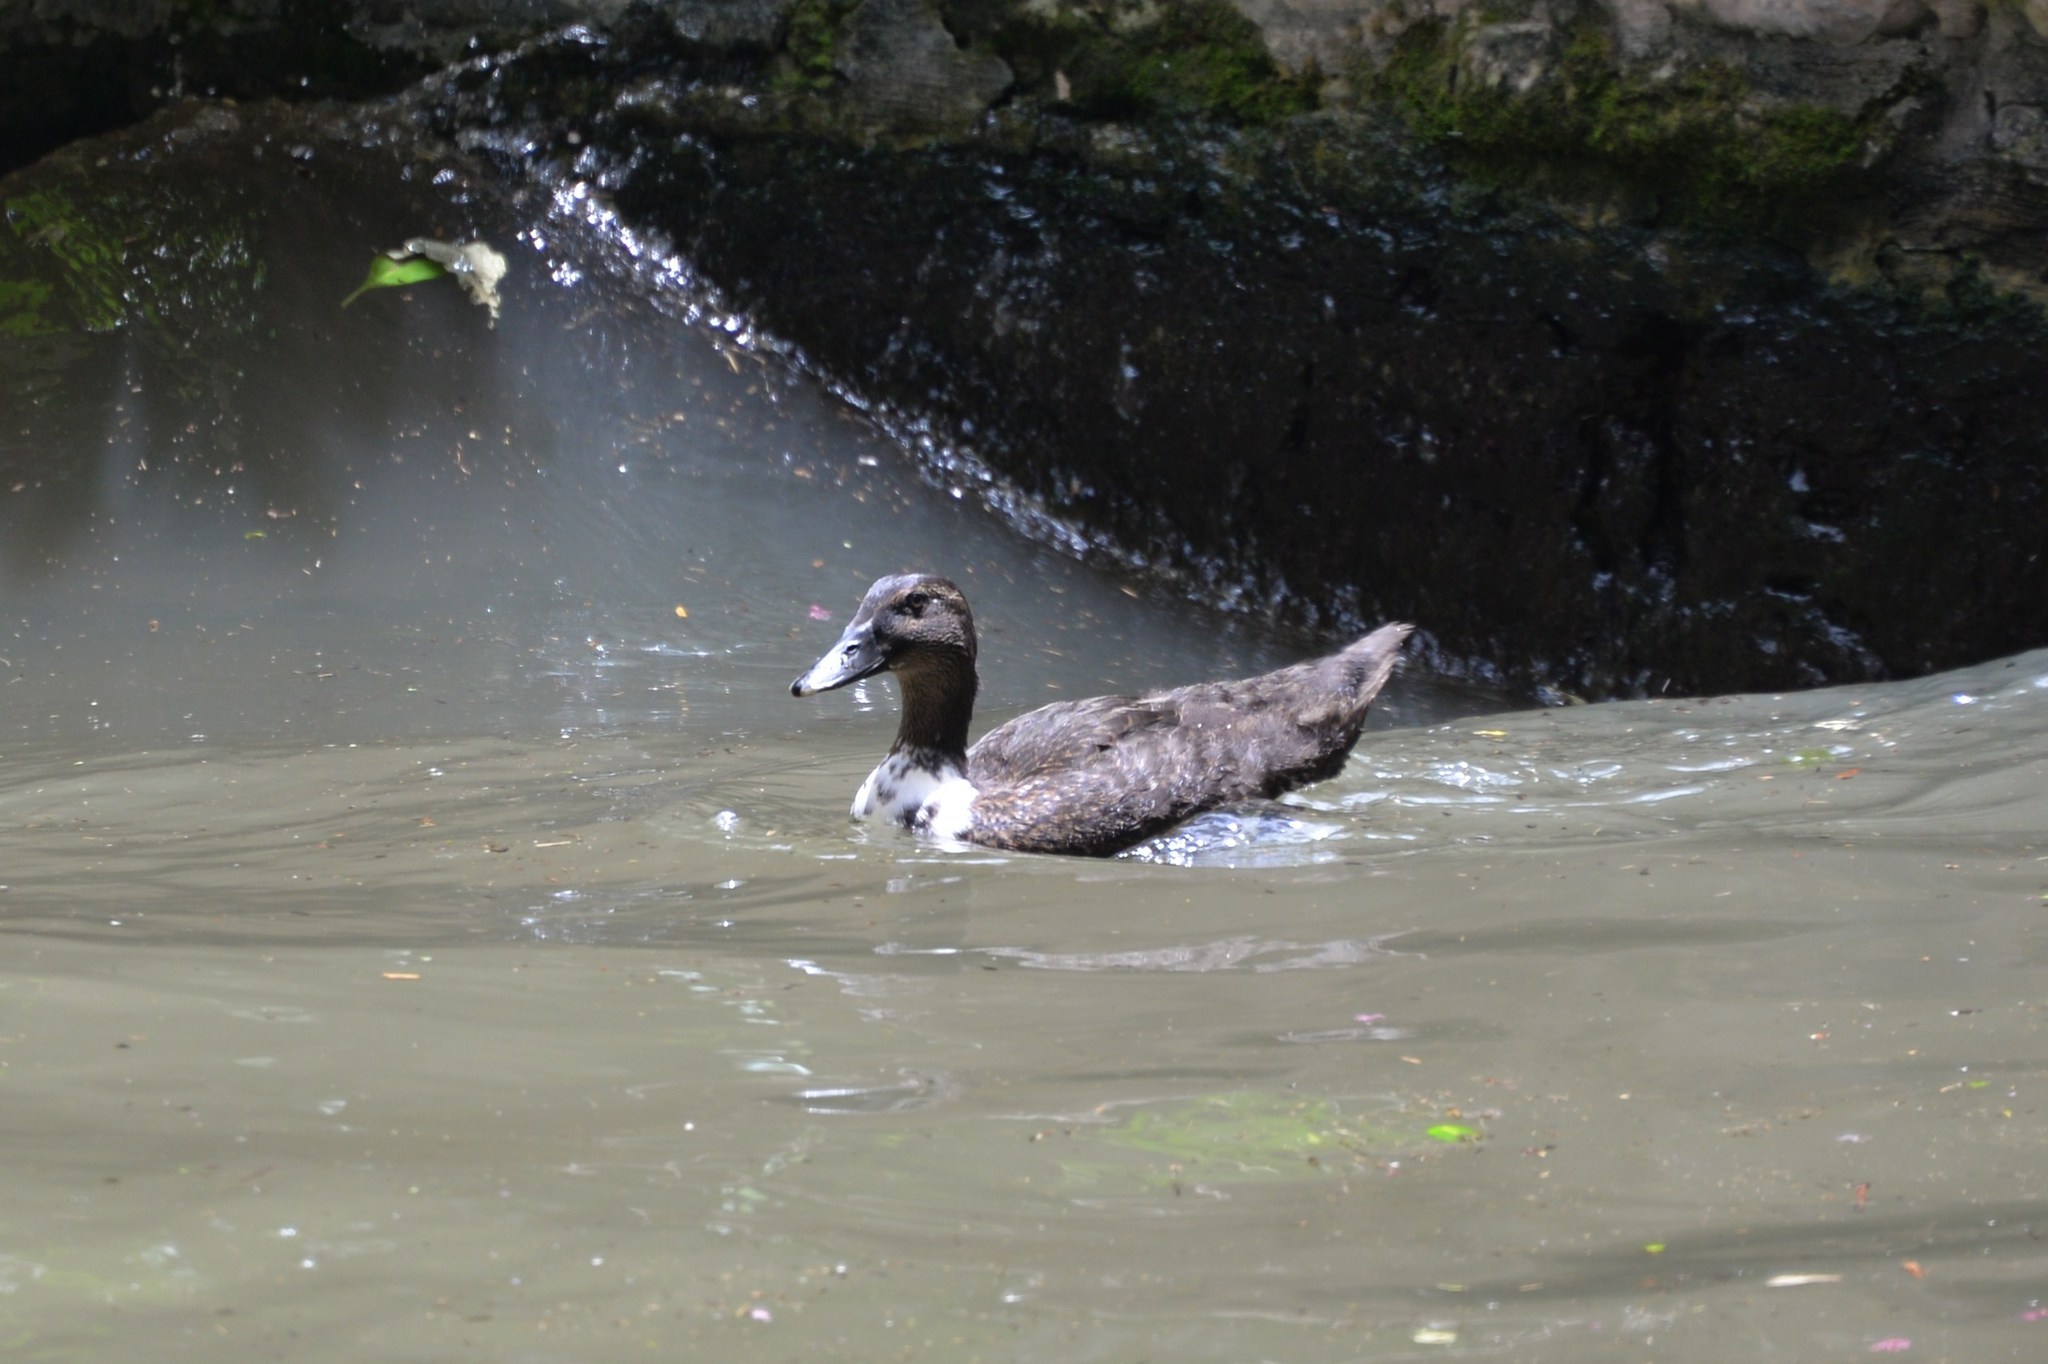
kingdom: Animalia
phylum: Chordata
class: Aves
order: Anseriformes
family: Anatidae
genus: Anas
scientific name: Anas platyrhynchos
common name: Mallard
